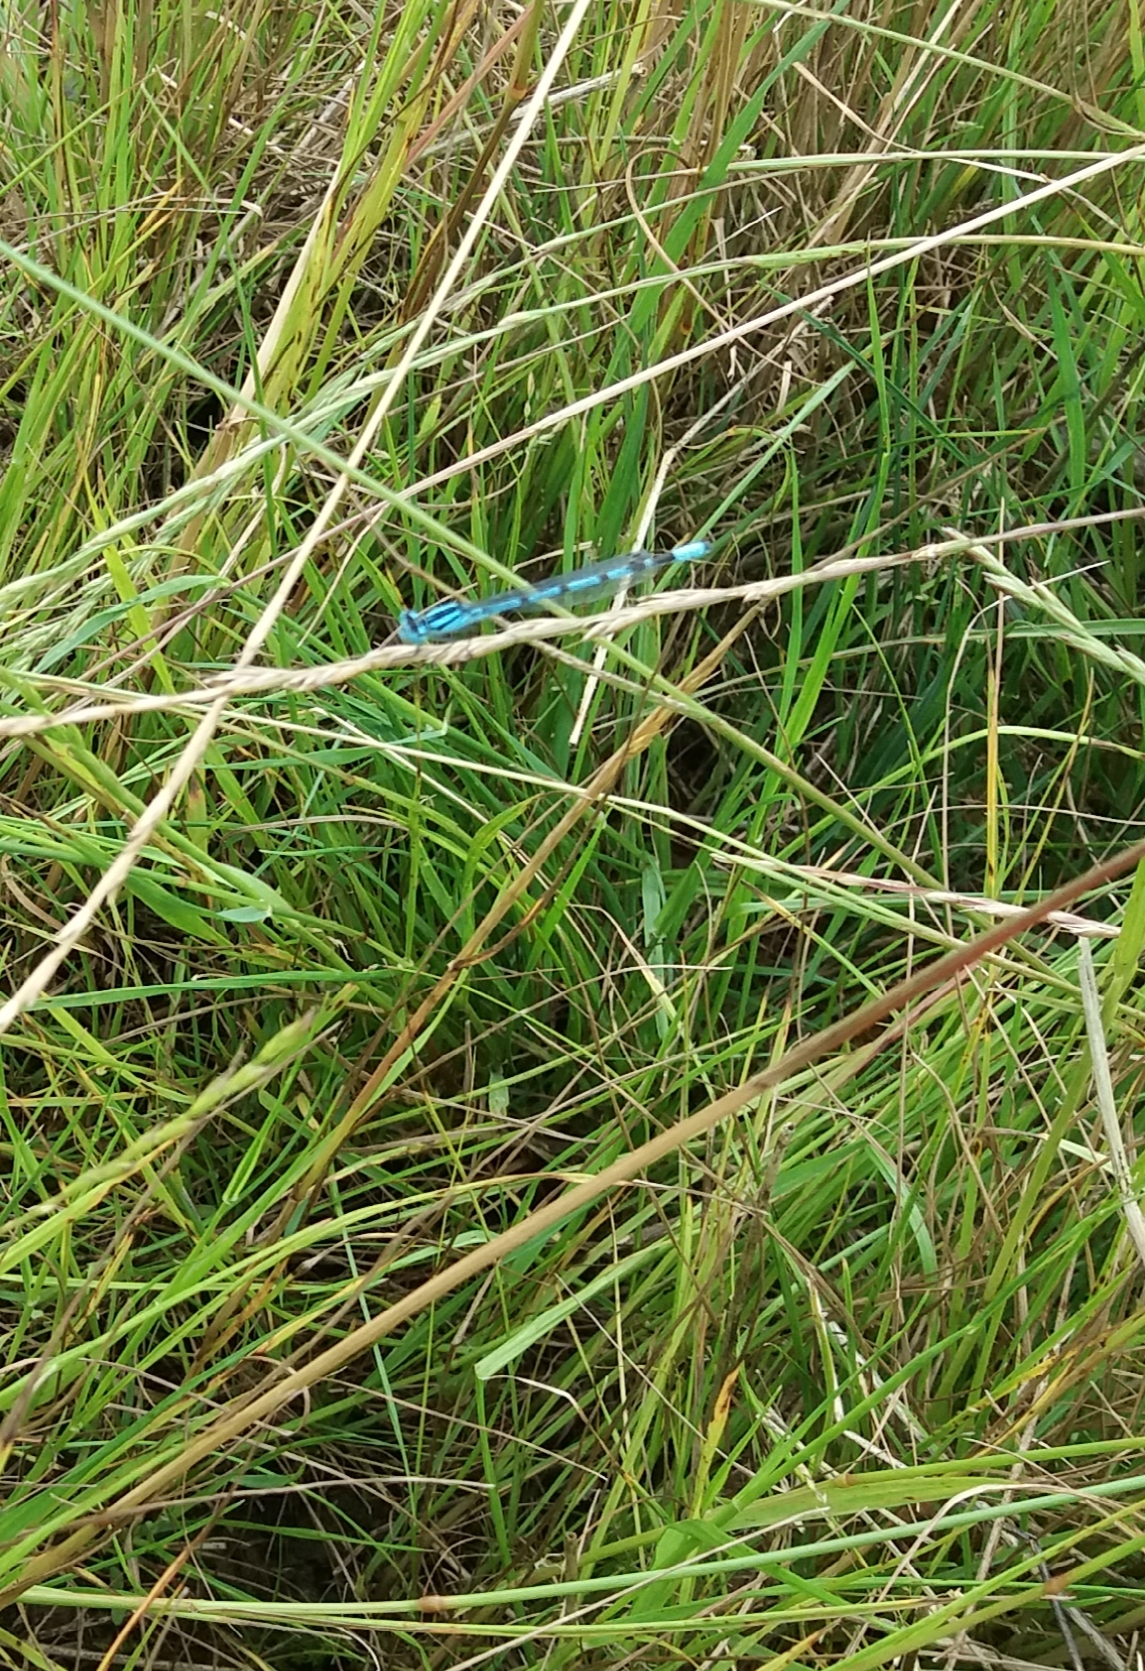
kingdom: Animalia
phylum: Arthropoda
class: Insecta
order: Odonata
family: Coenagrionidae
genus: Enallagma
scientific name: Enallagma cyathigerum
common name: Common blue damselfly
